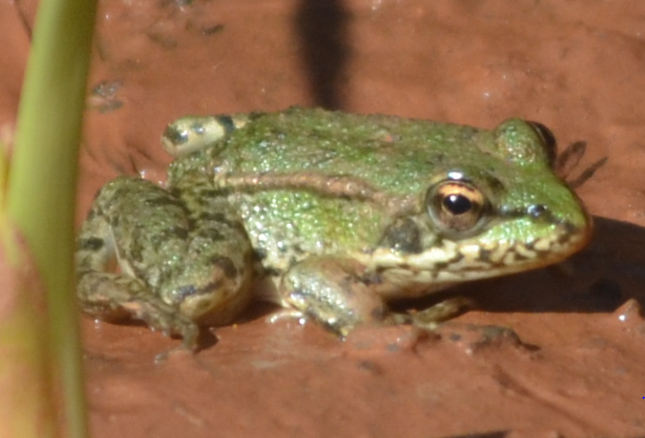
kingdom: Animalia
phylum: Chordata
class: Amphibia
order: Anura
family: Ranidae
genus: Pelophylax
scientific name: Pelophylax perezi
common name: Perez's frog
